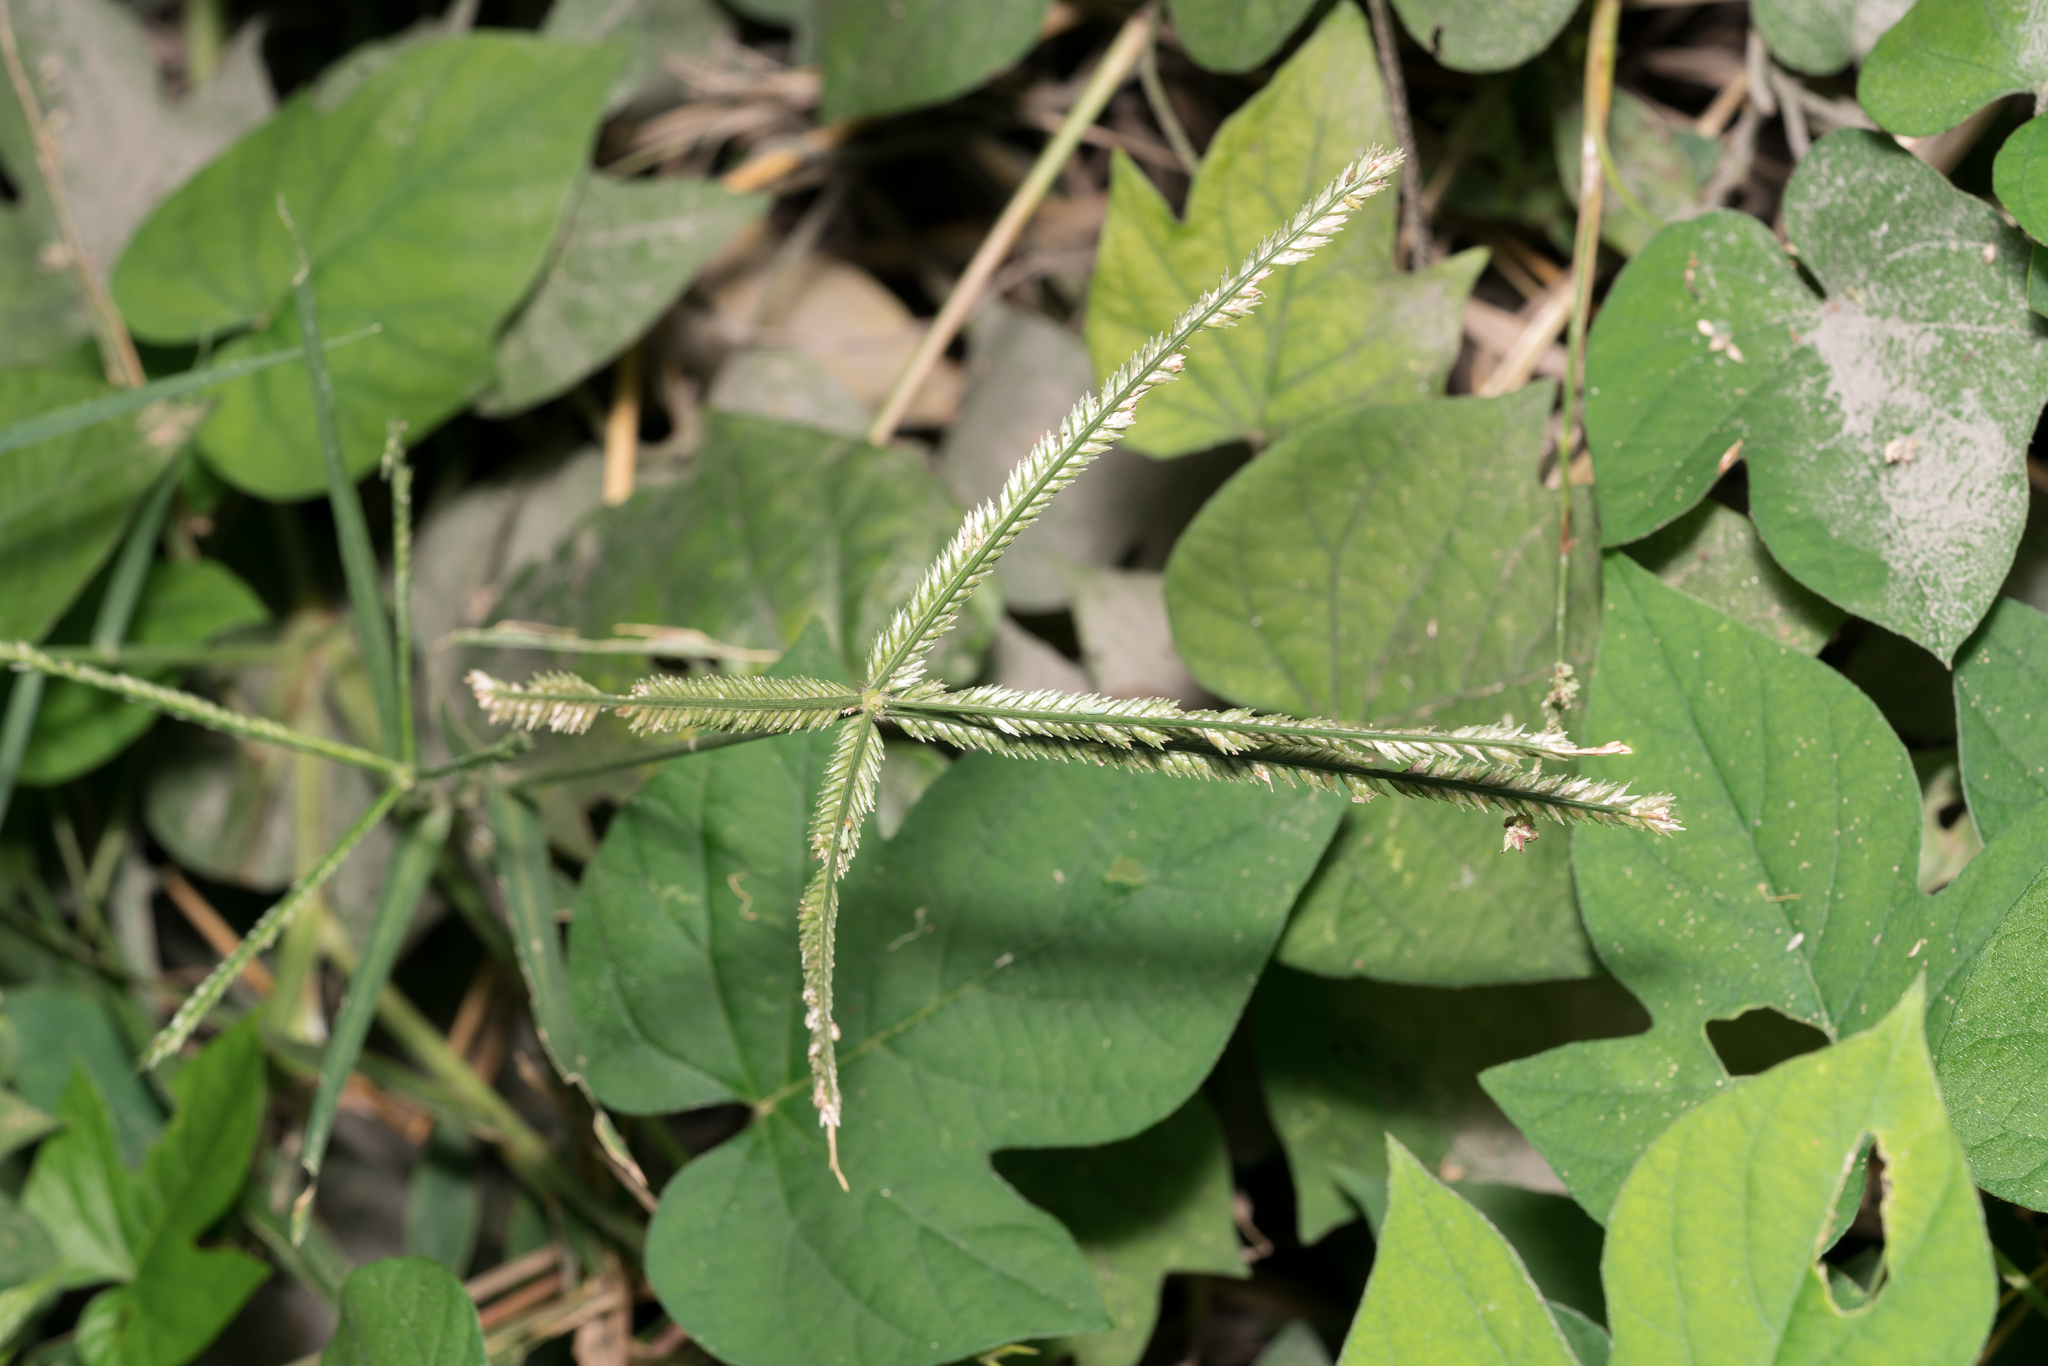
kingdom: Plantae
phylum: Tracheophyta
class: Liliopsida
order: Poales
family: Poaceae
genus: Eleusine
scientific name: Eleusine indica
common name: Yard-grass
